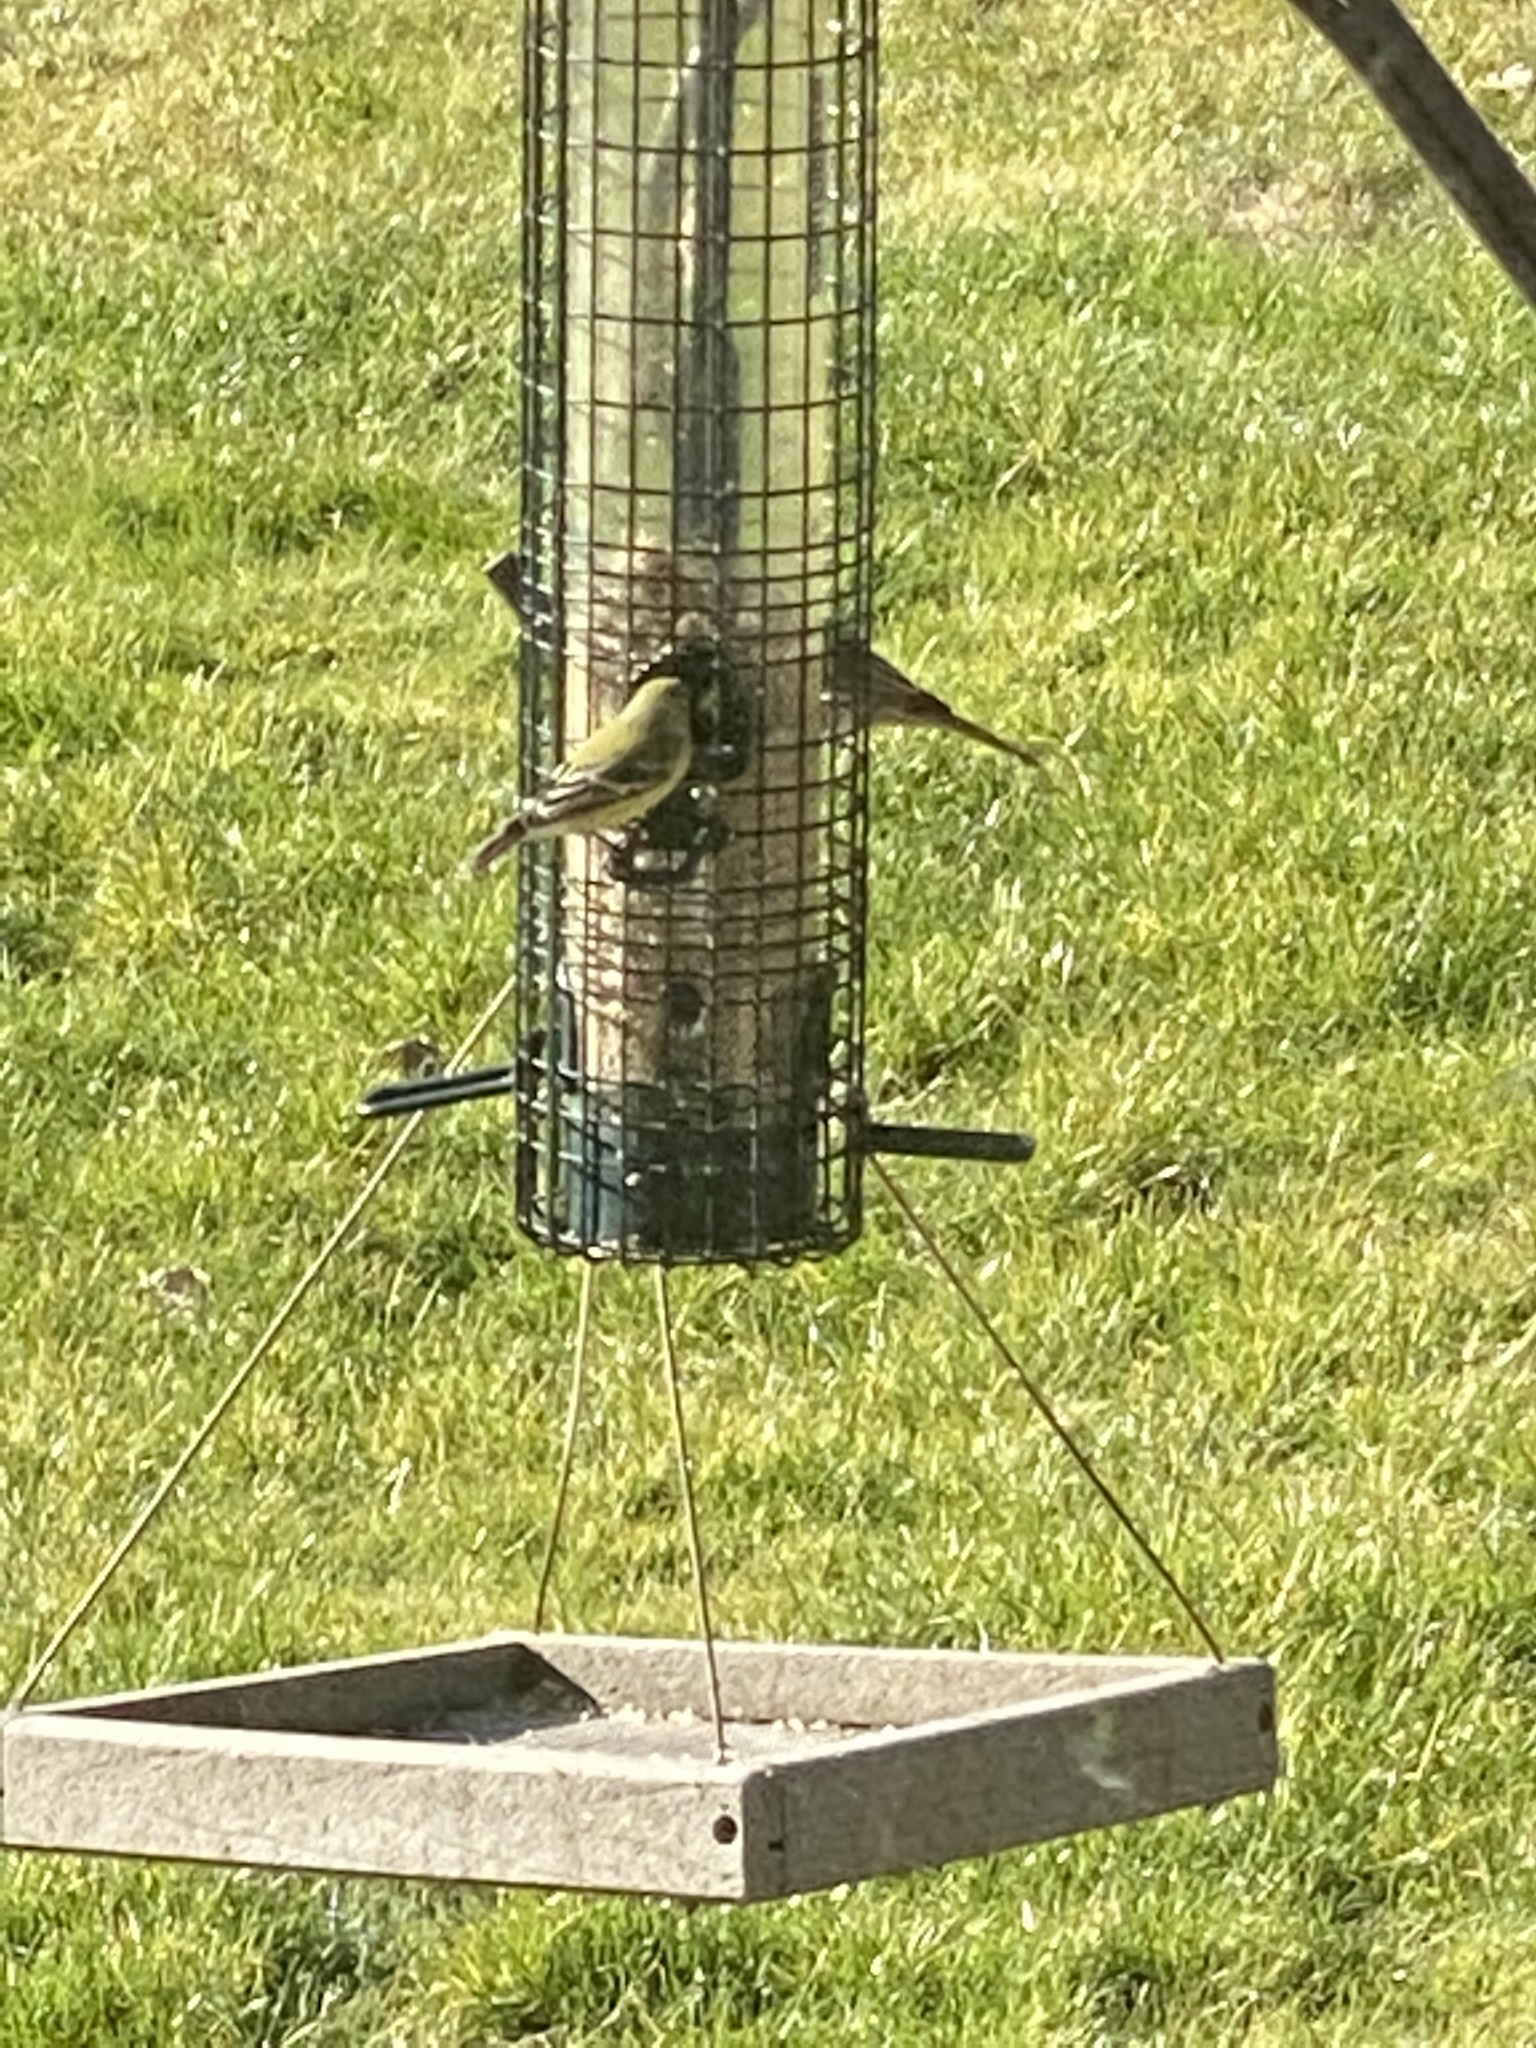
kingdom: Animalia
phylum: Chordata
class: Aves
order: Passeriformes
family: Fringillidae
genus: Spinus
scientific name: Spinus psaltria
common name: Lesser goldfinch
